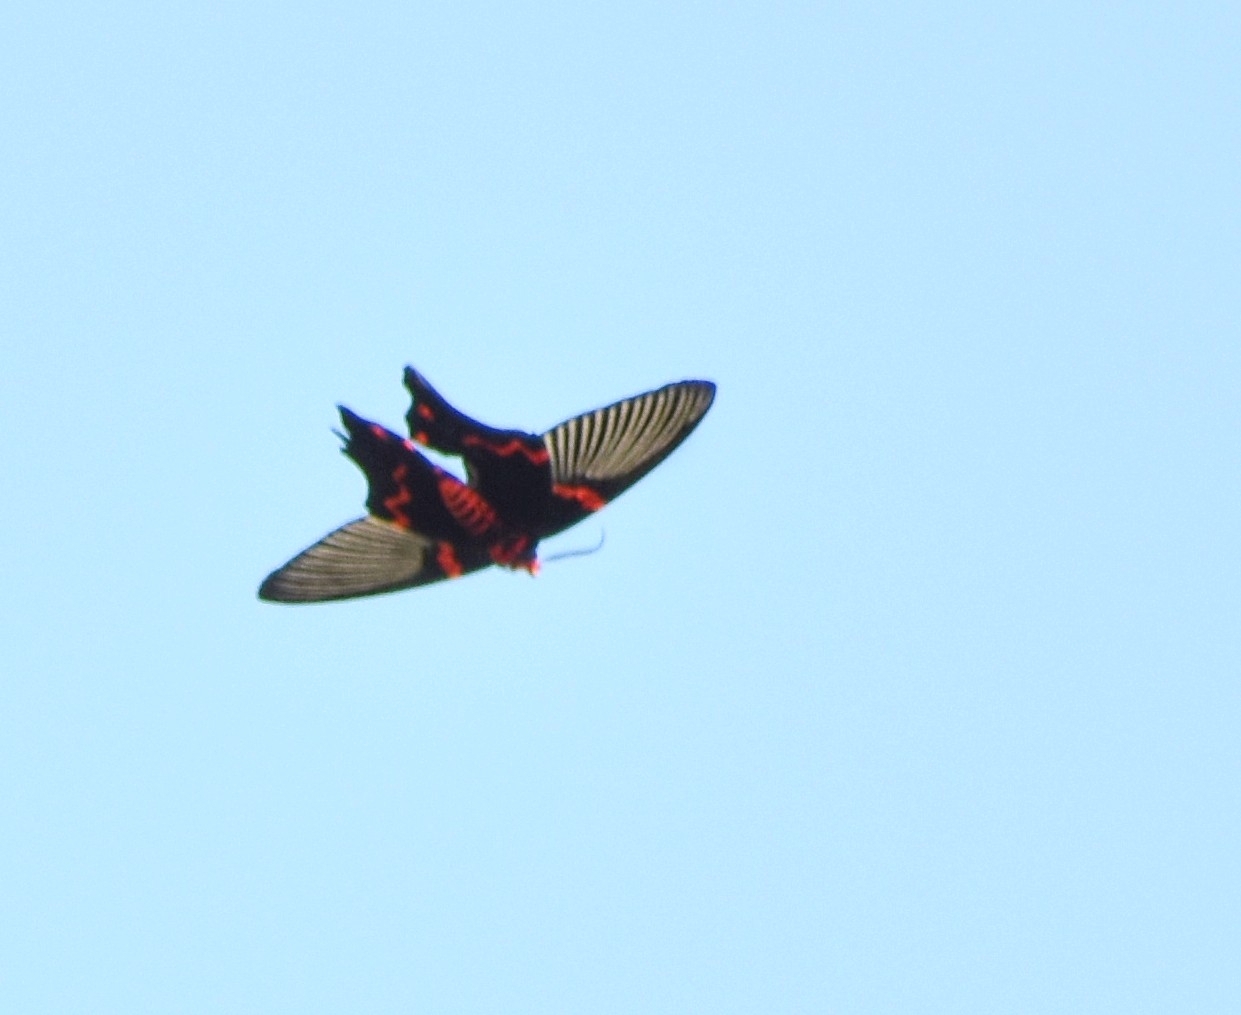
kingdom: Animalia
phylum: Arthropoda
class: Insecta
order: Lepidoptera
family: Epicopeiidae
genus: Epicopeia
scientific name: Epicopeia polydora
